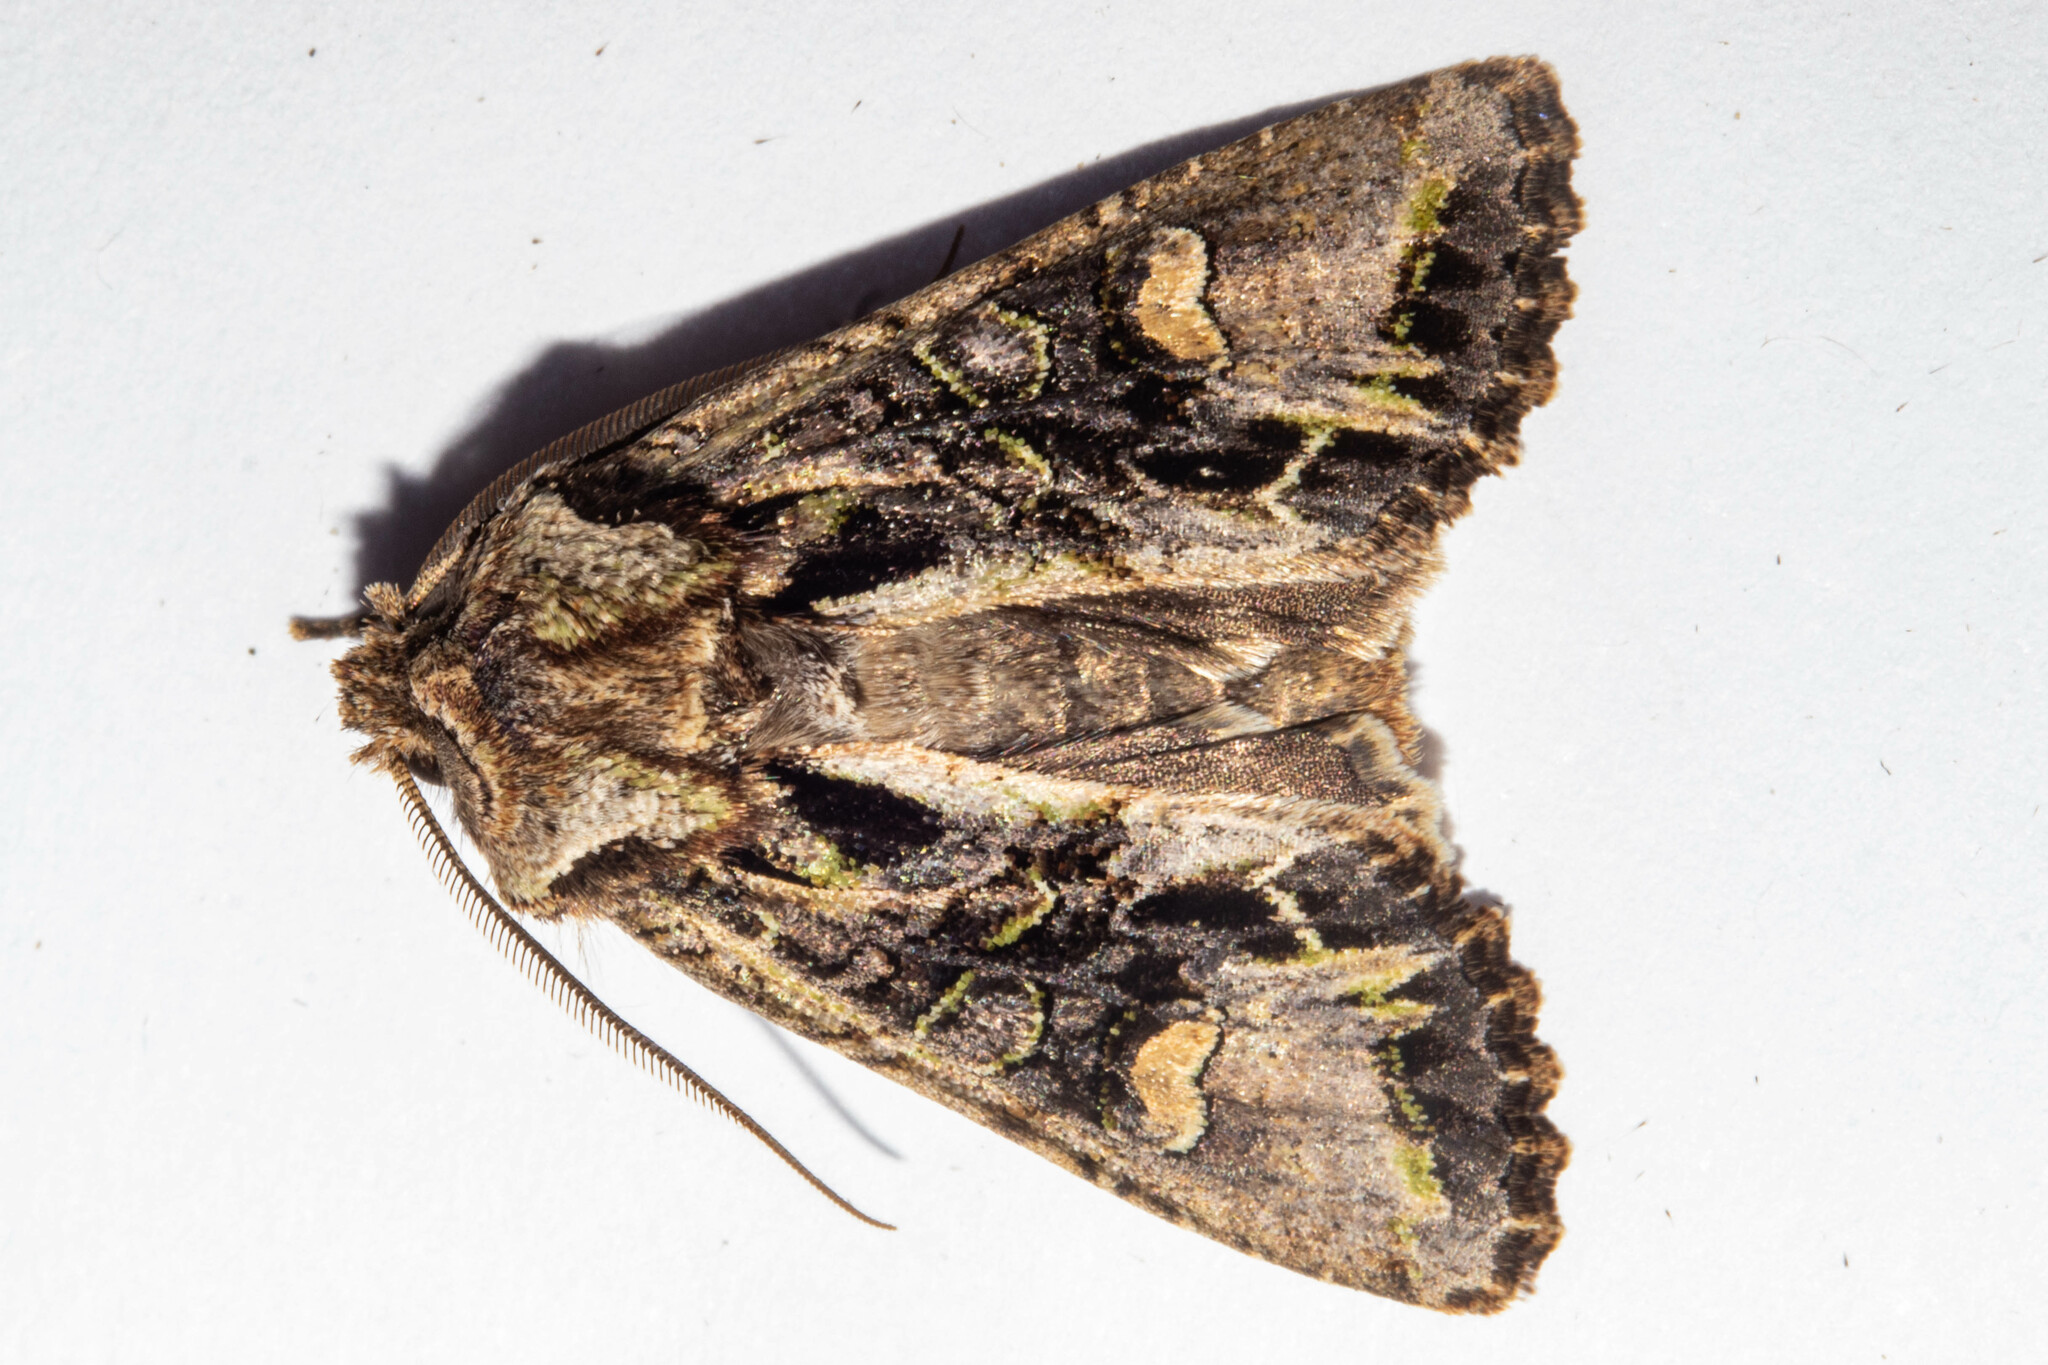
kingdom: Animalia
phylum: Arthropoda
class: Insecta
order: Lepidoptera
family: Noctuidae
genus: Ichneutica
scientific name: Ichneutica insignis
